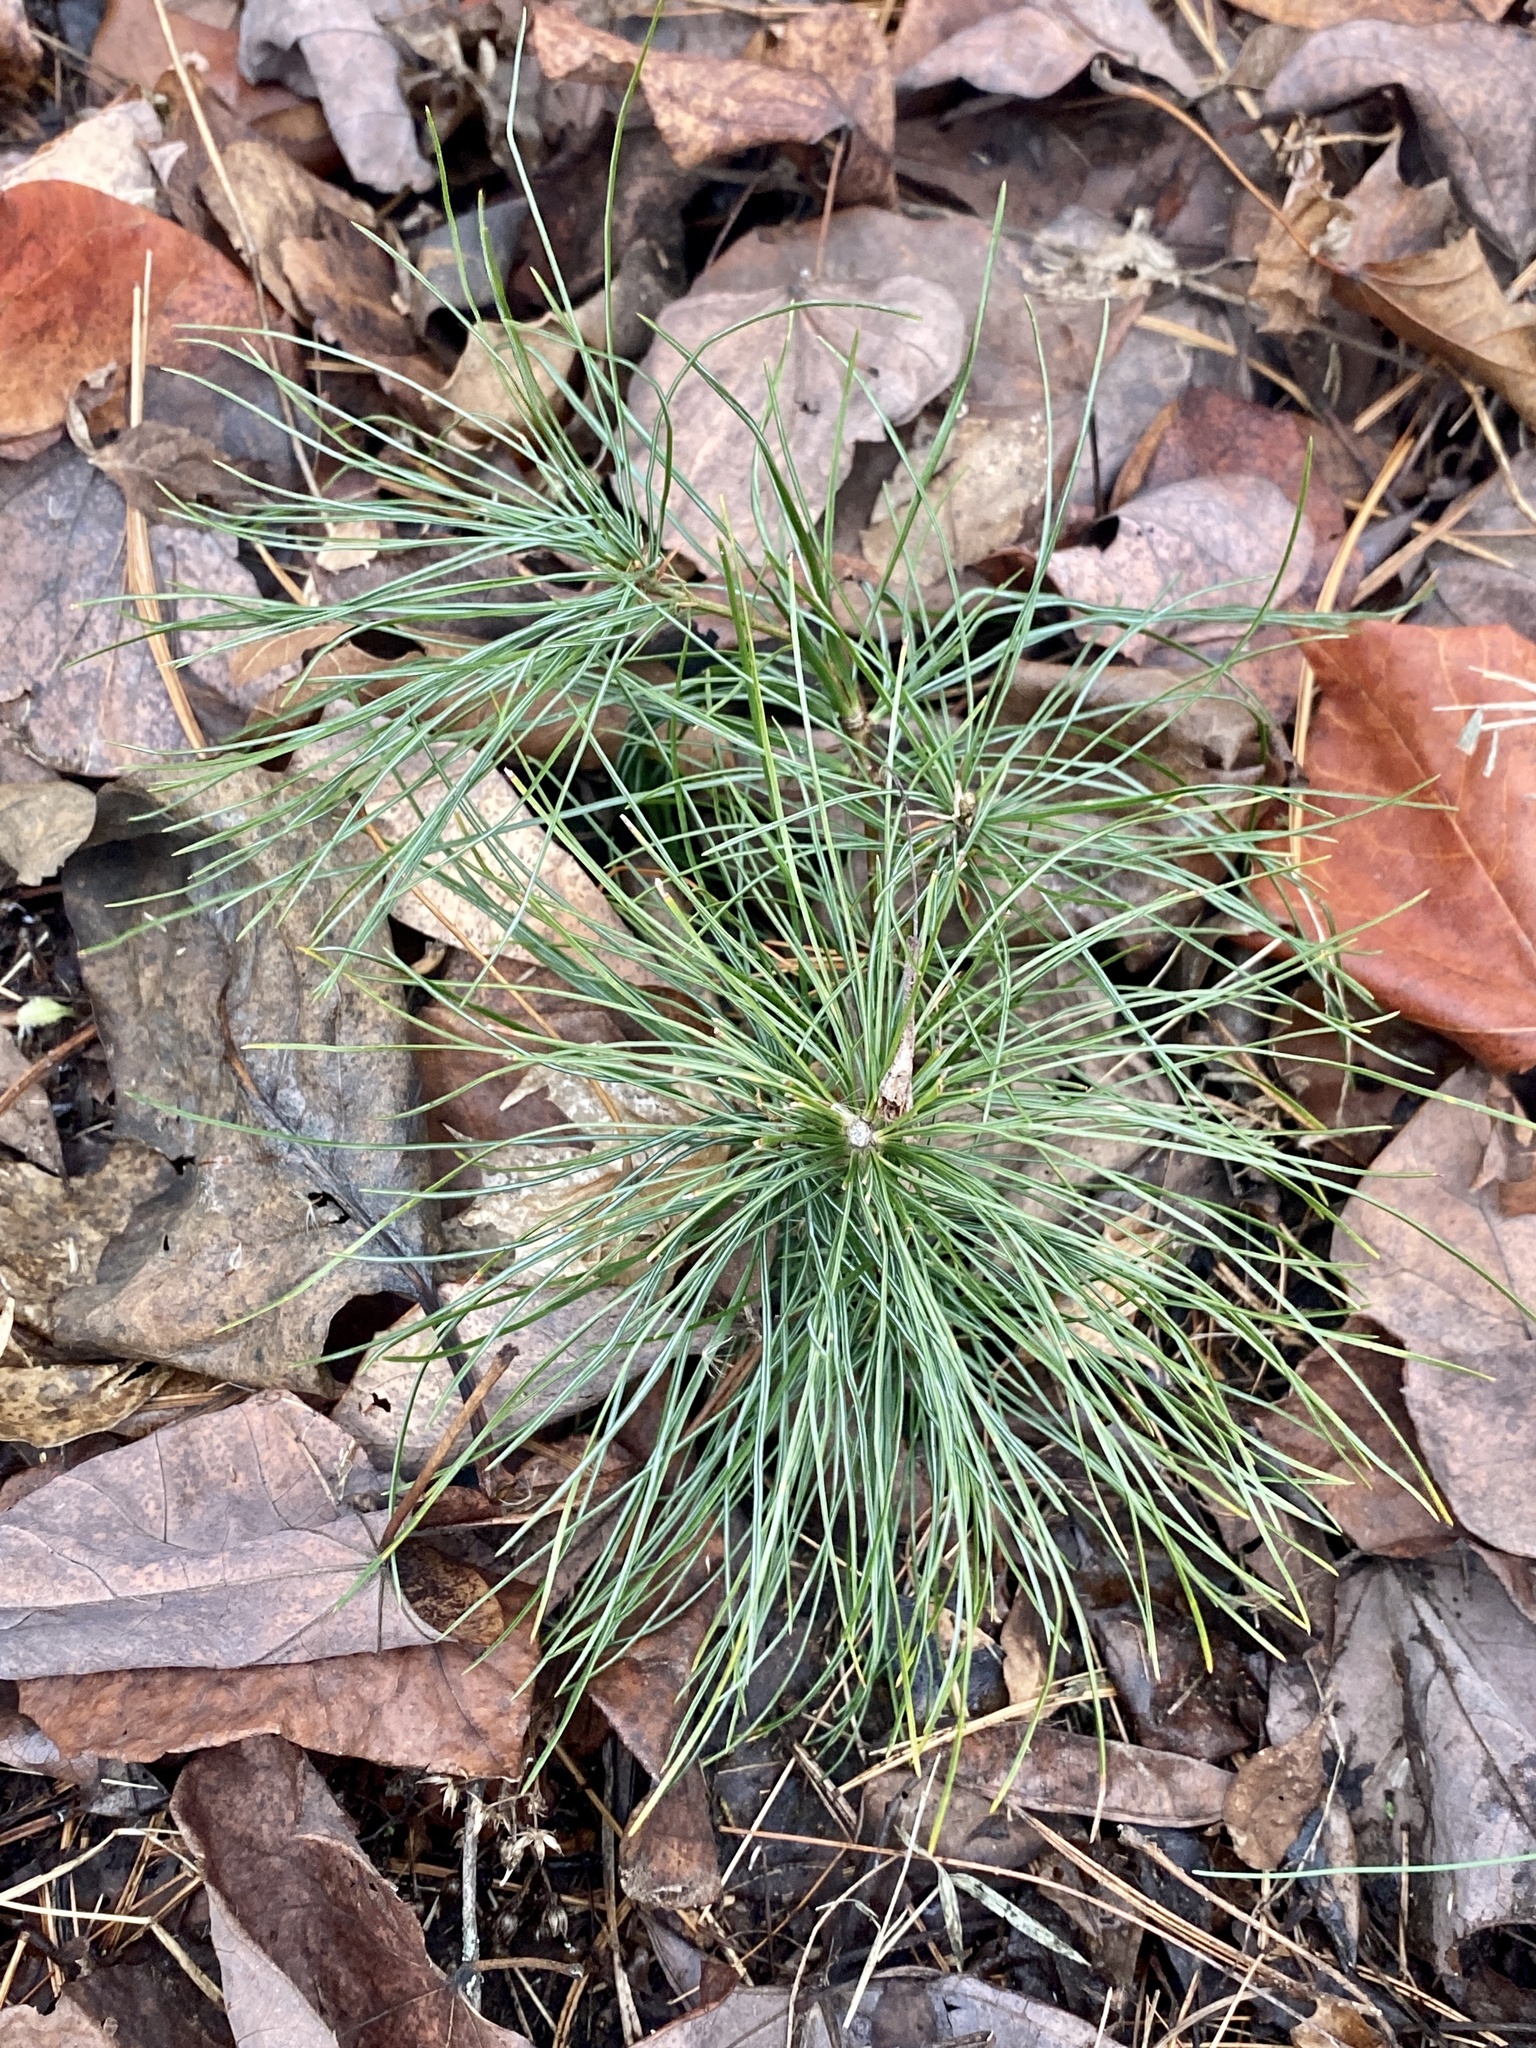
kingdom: Plantae
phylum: Tracheophyta
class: Pinopsida
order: Pinales
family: Pinaceae
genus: Pinus
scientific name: Pinus strobus
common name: Weymouth pine
